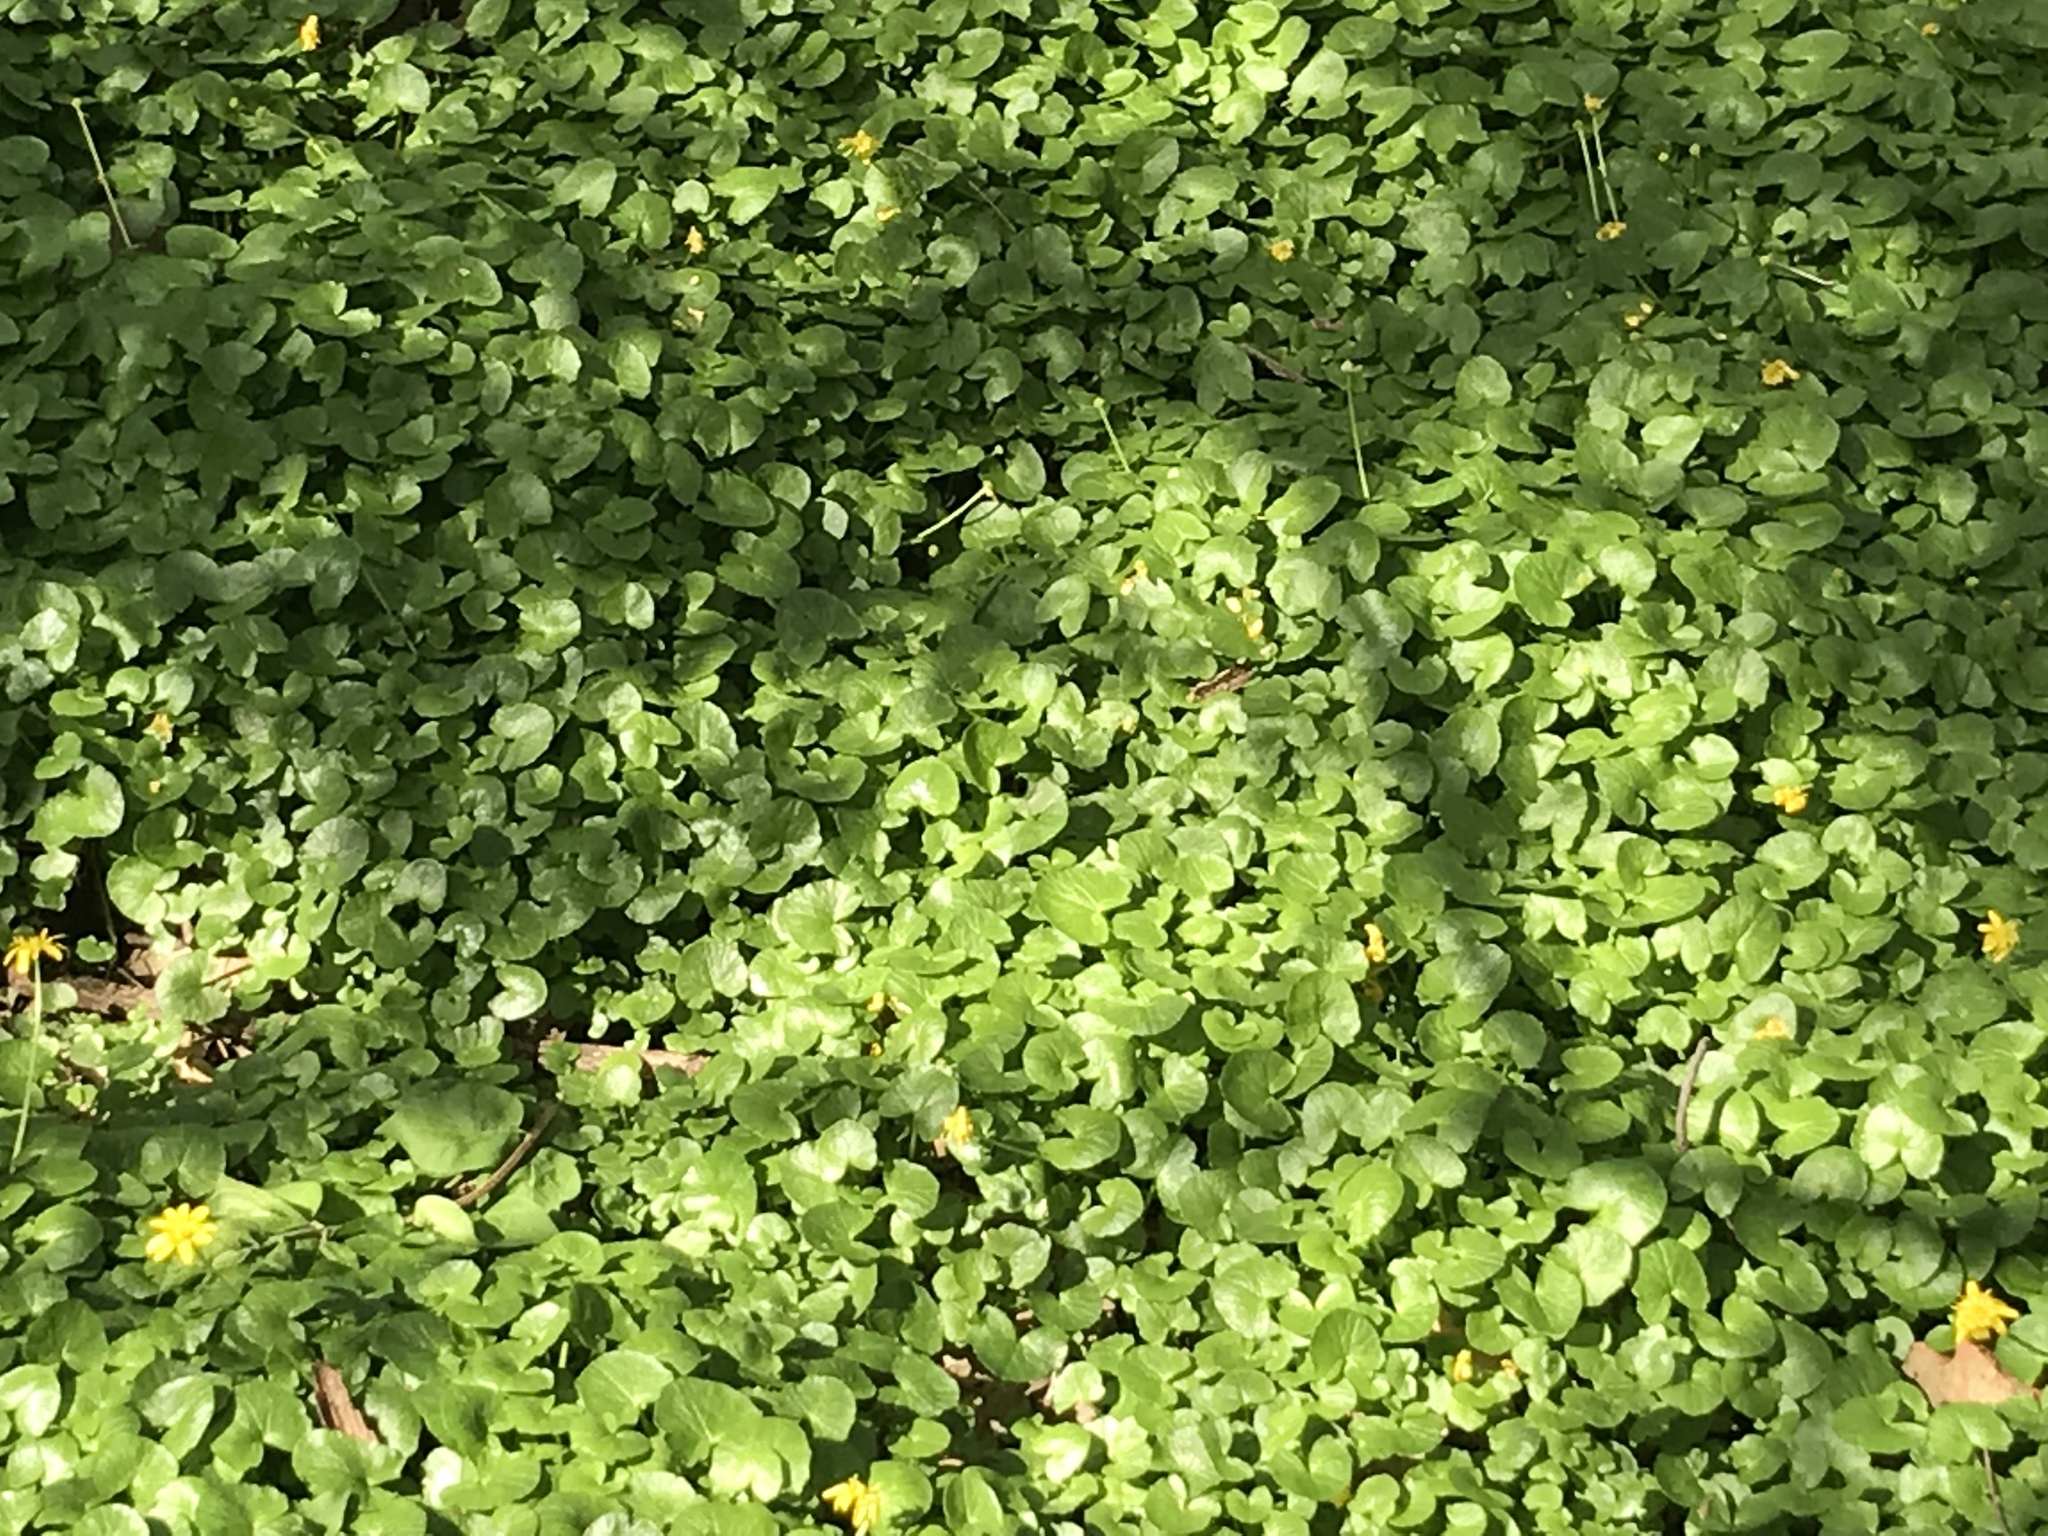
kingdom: Plantae
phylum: Tracheophyta
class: Magnoliopsida
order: Ranunculales
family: Ranunculaceae
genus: Ficaria
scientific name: Ficaria verna
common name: Lesser celandine
